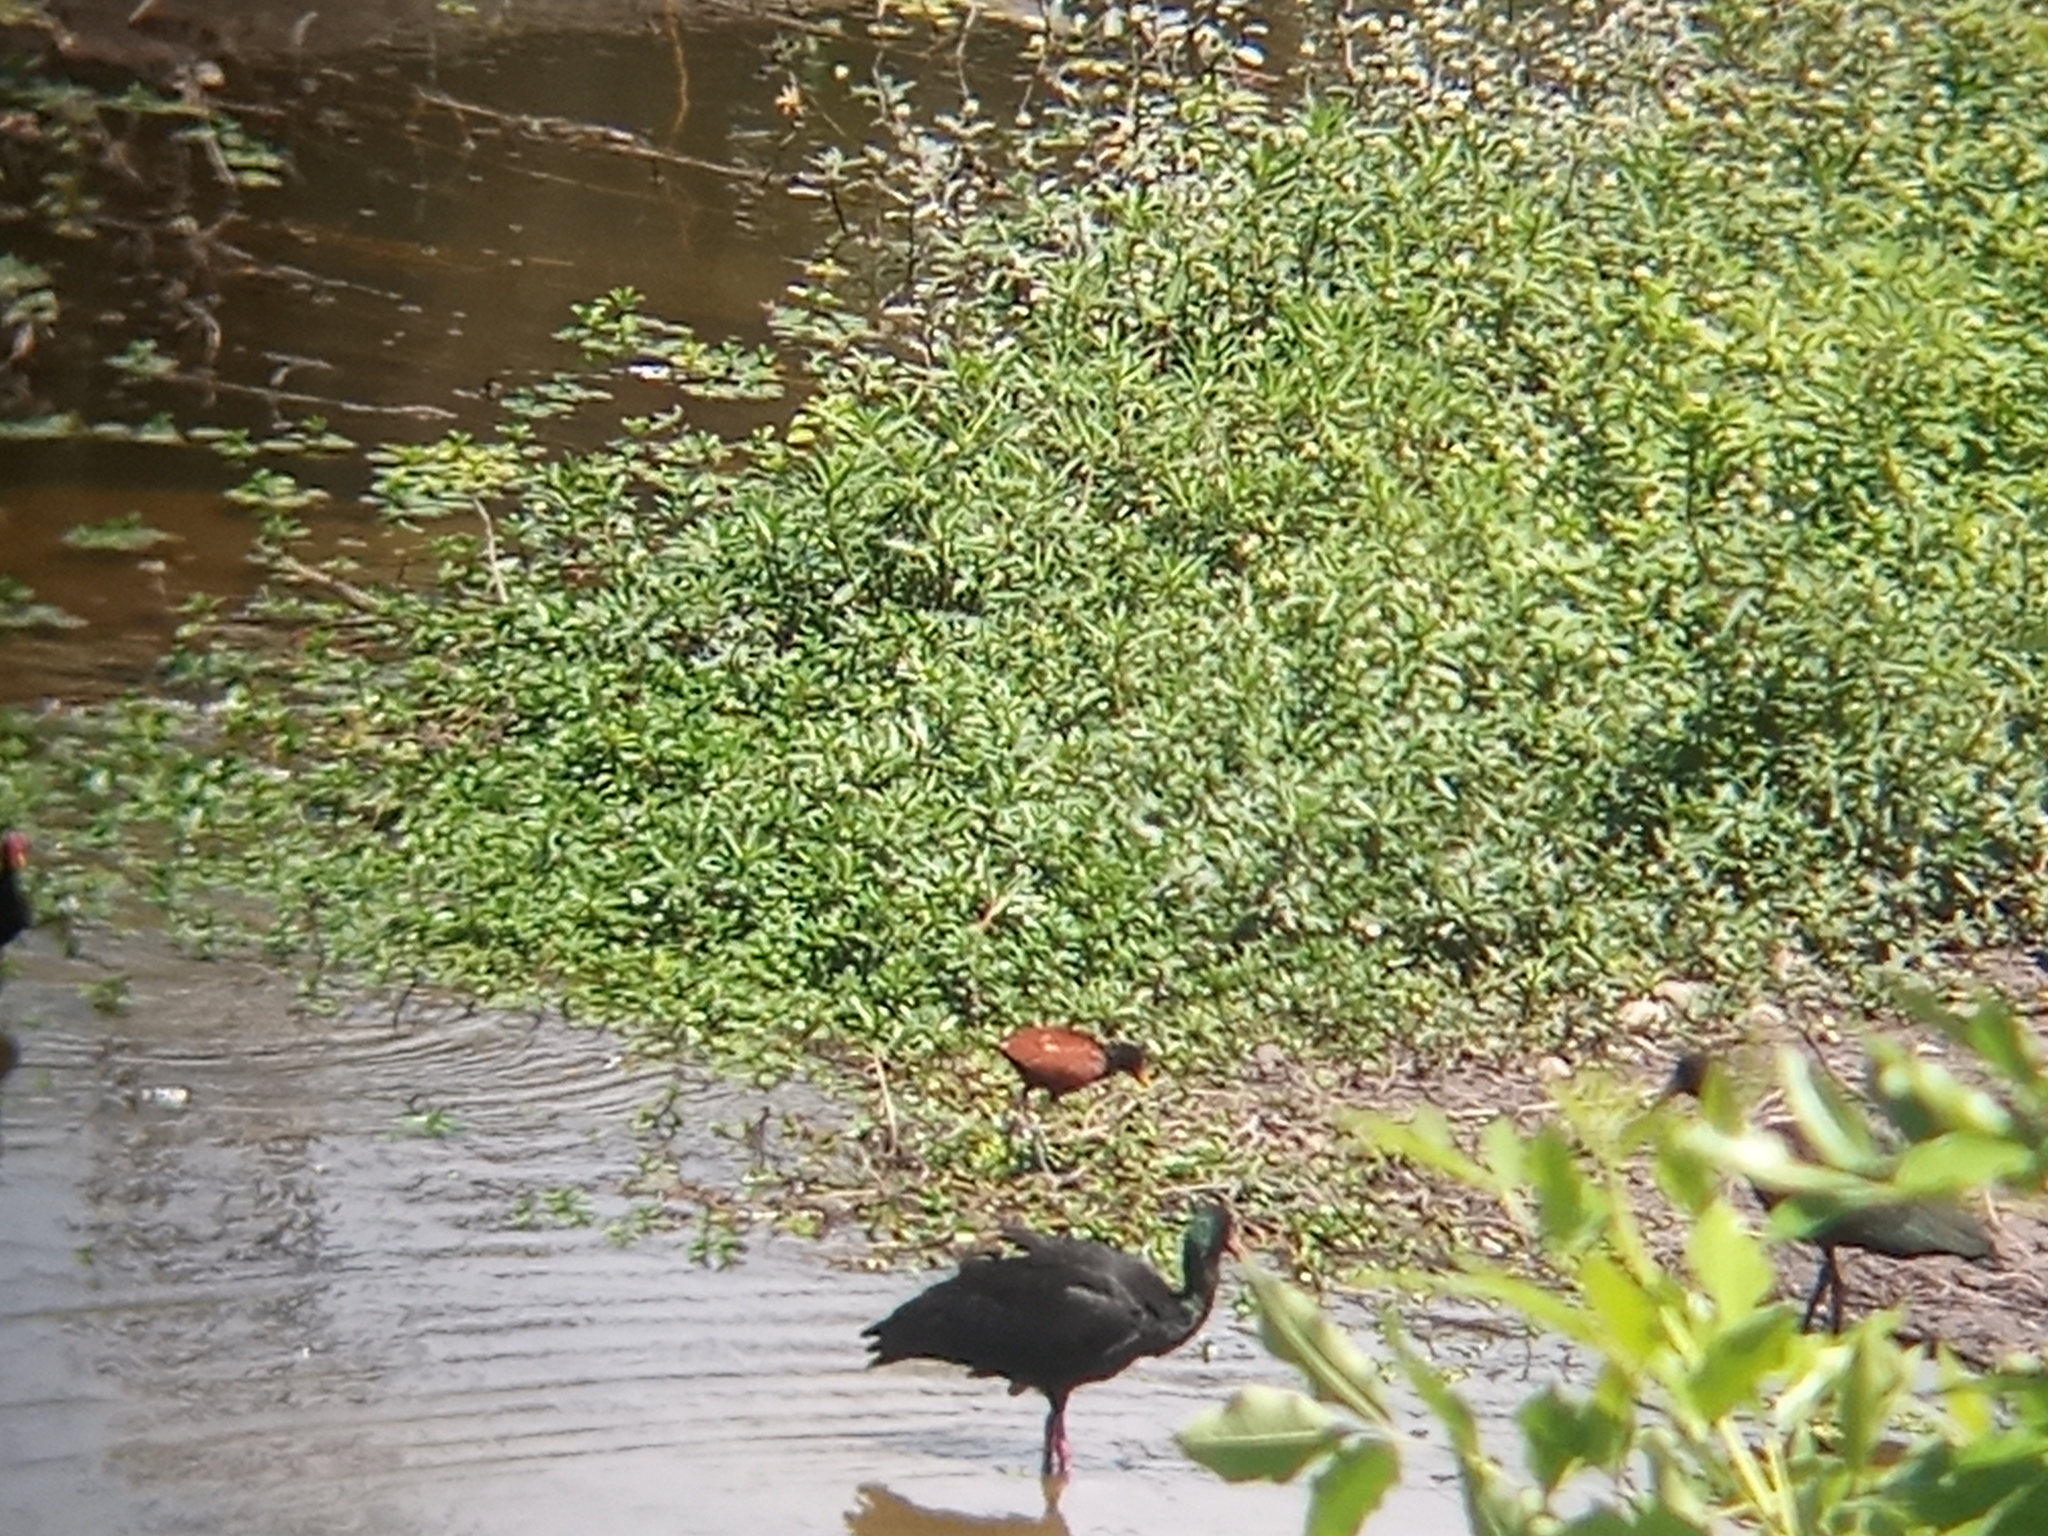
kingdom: Animalia
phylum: Chordata
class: Aves
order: Pelecaniformes
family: Threskiornithidae
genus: Phimosus
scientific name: Phimosus infuscatus
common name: Bare-faced ibis
